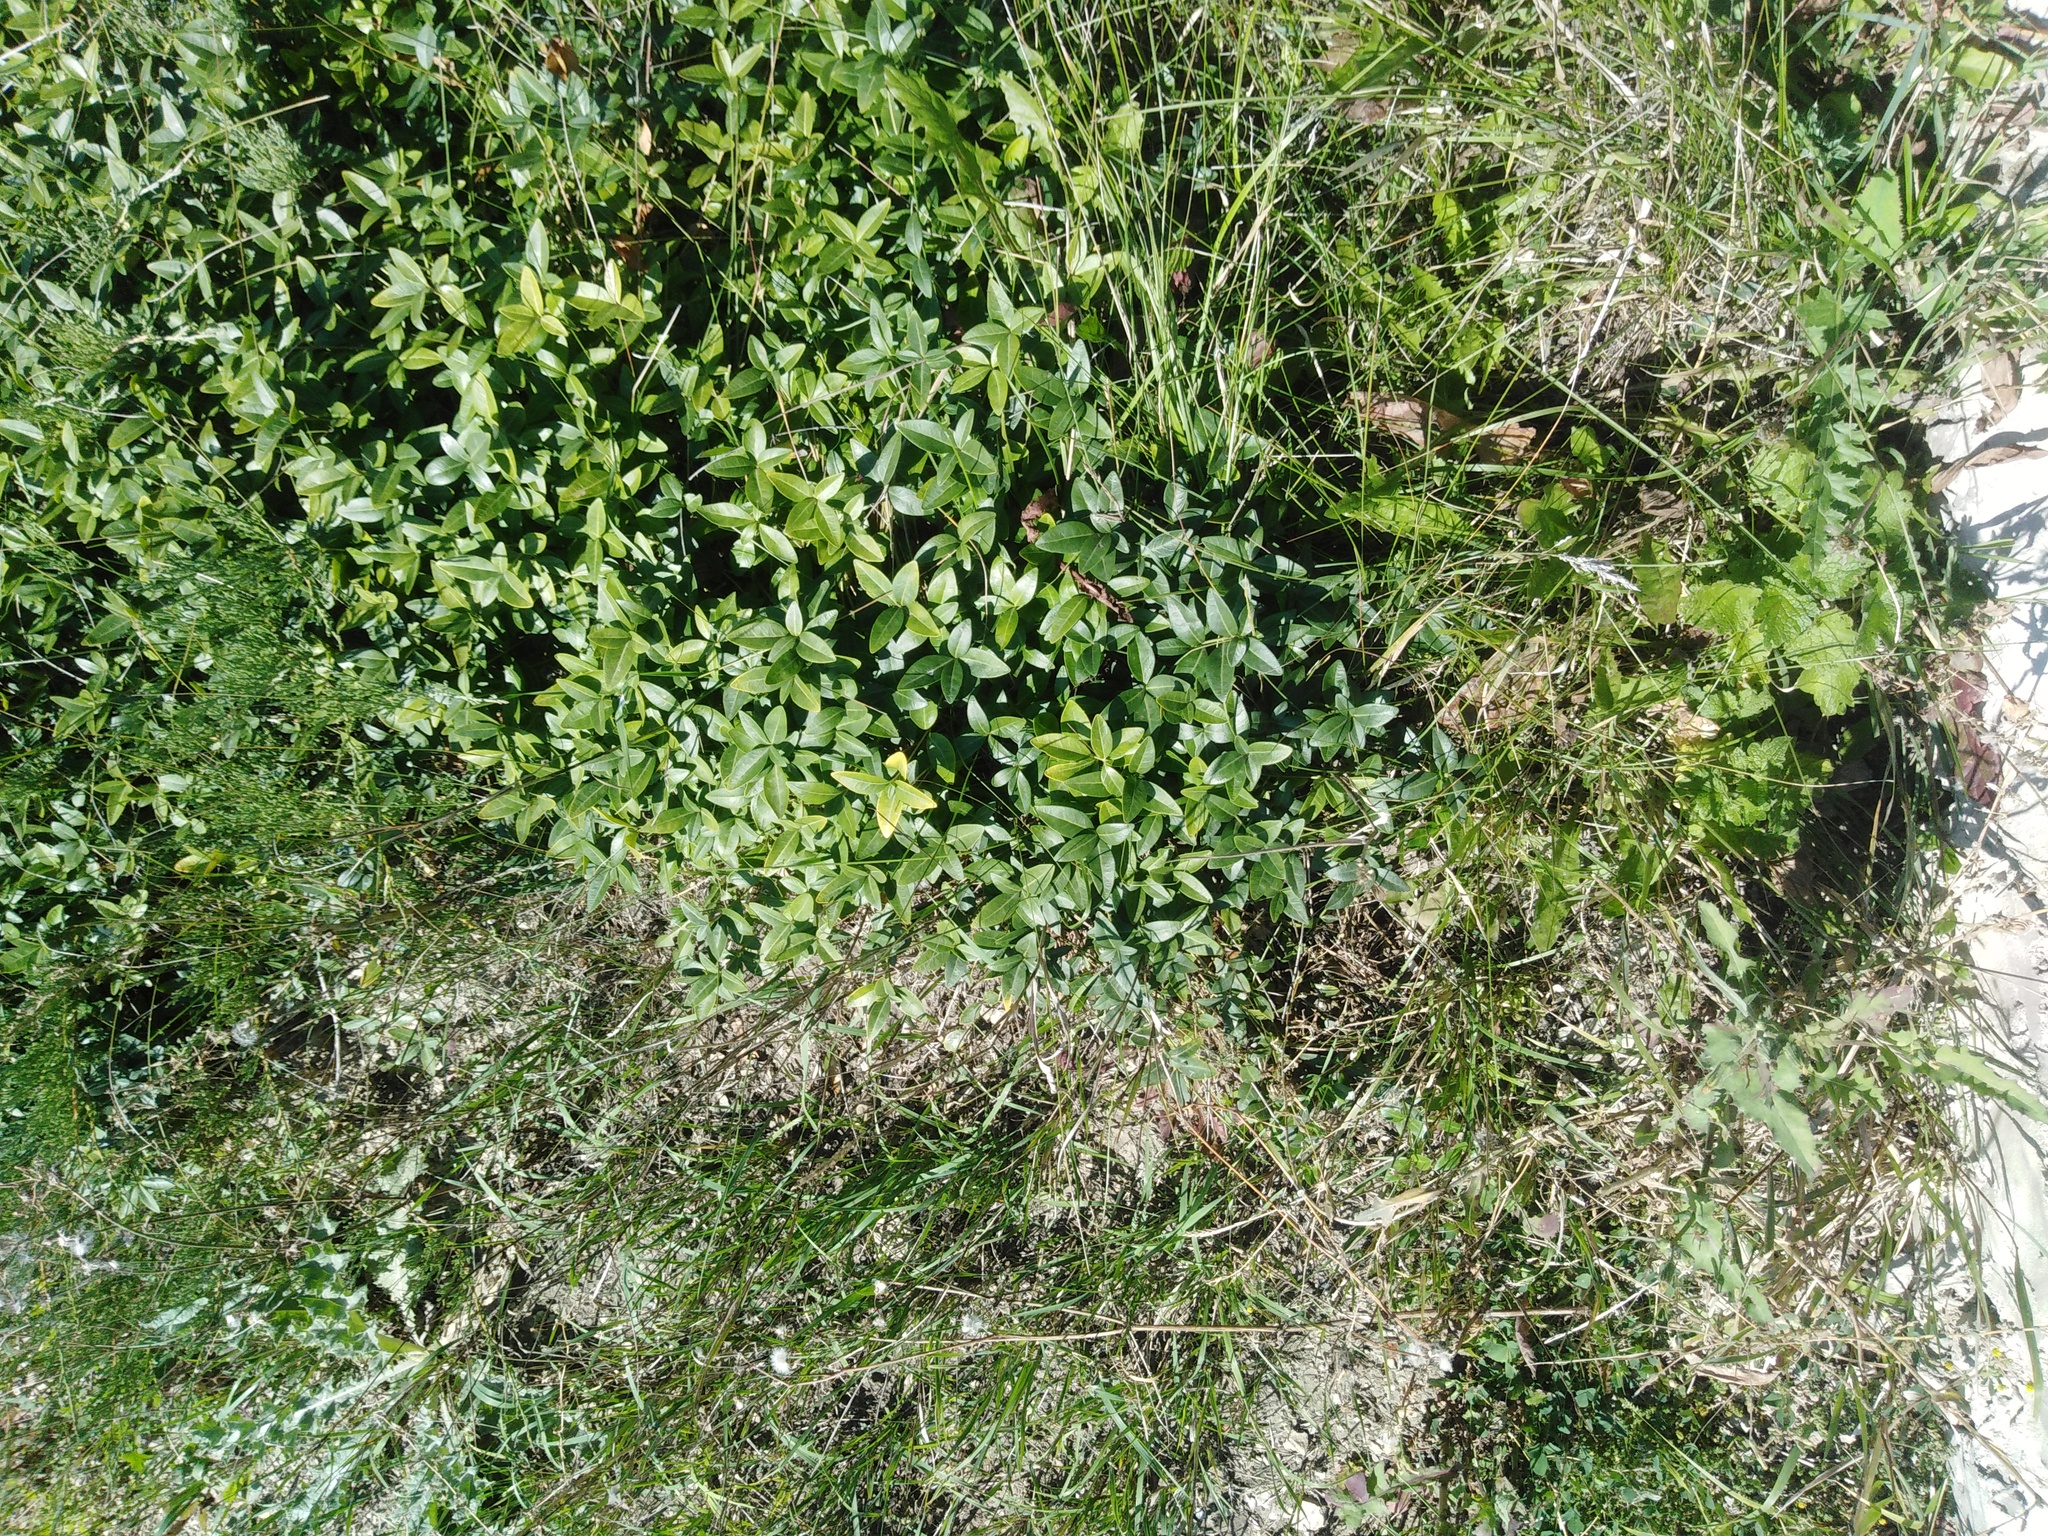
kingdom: Plantae
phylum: Tracheophyta
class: Magnoliopsida
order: Gentianales
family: Apocynaceae
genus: Vinca
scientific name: Vinca minor
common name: Lesser periwinkle
